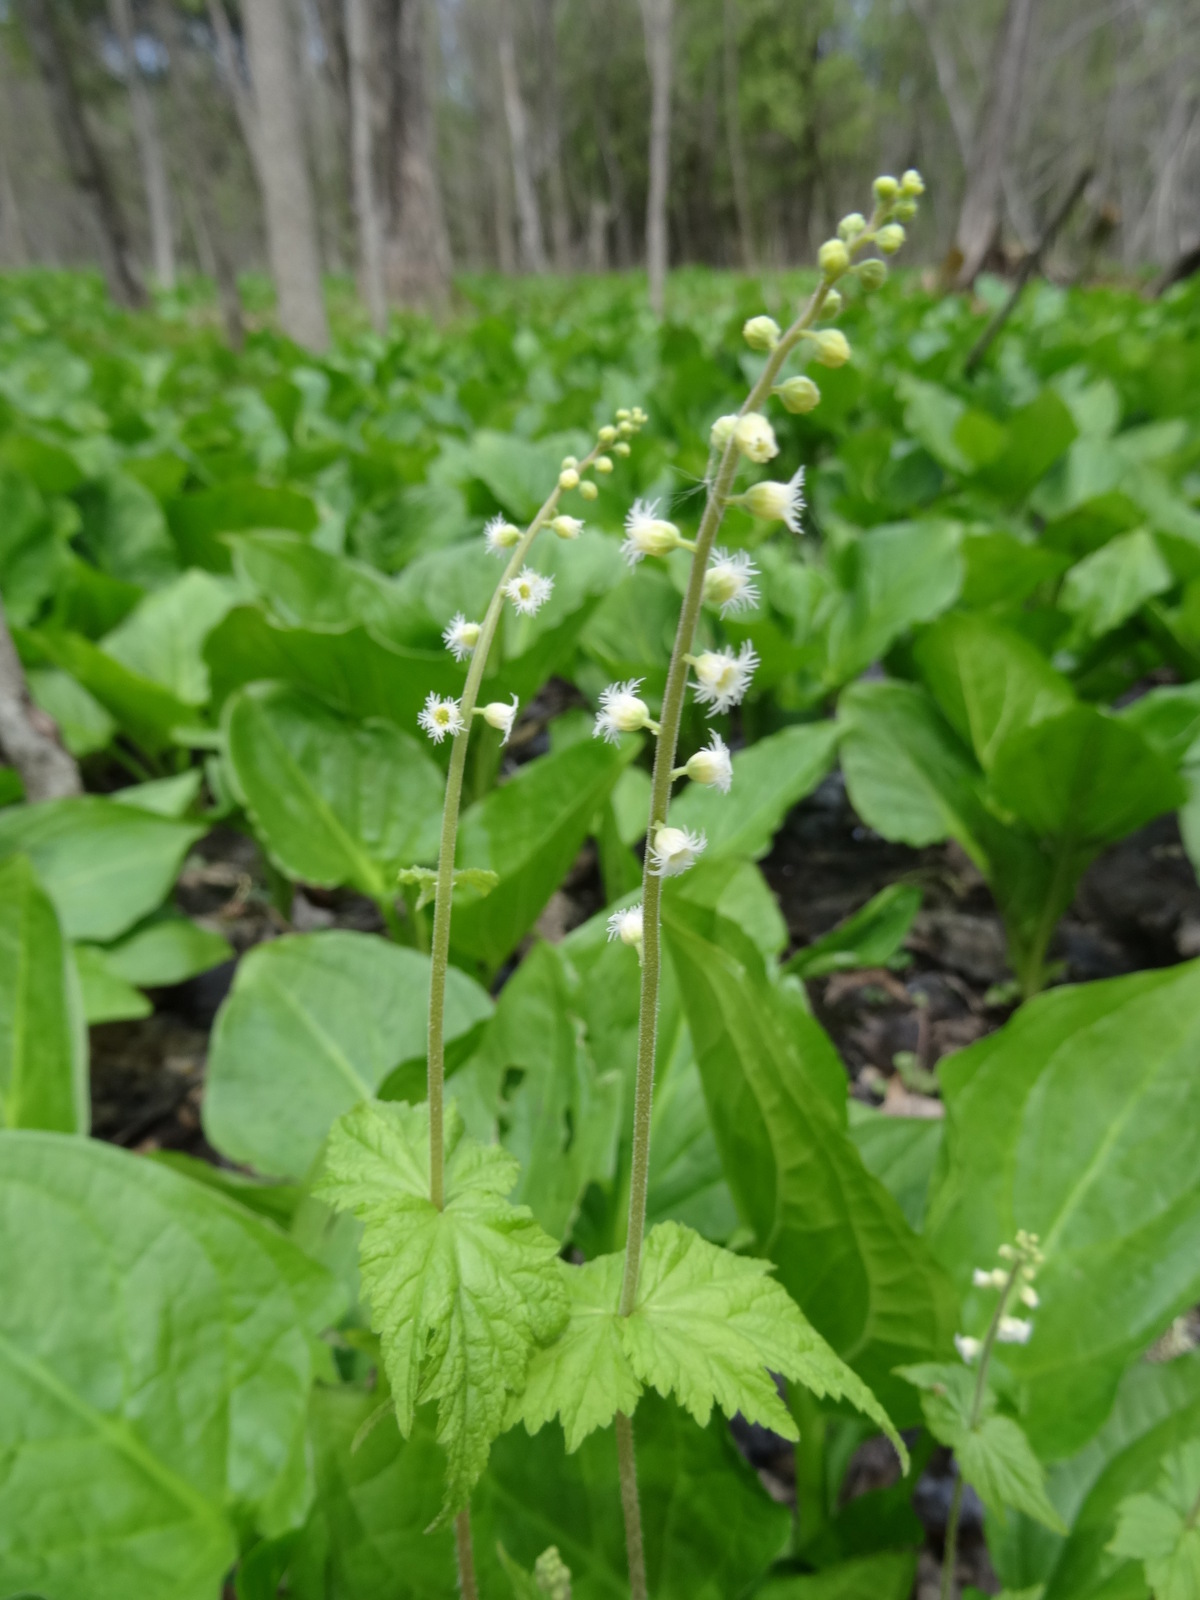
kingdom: Plantae
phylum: Tracheophyta
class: Magnoliopsida
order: Saxifragales
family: Saxifragaceae
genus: Mitella
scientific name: Mitella diphylla
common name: Coolwort
